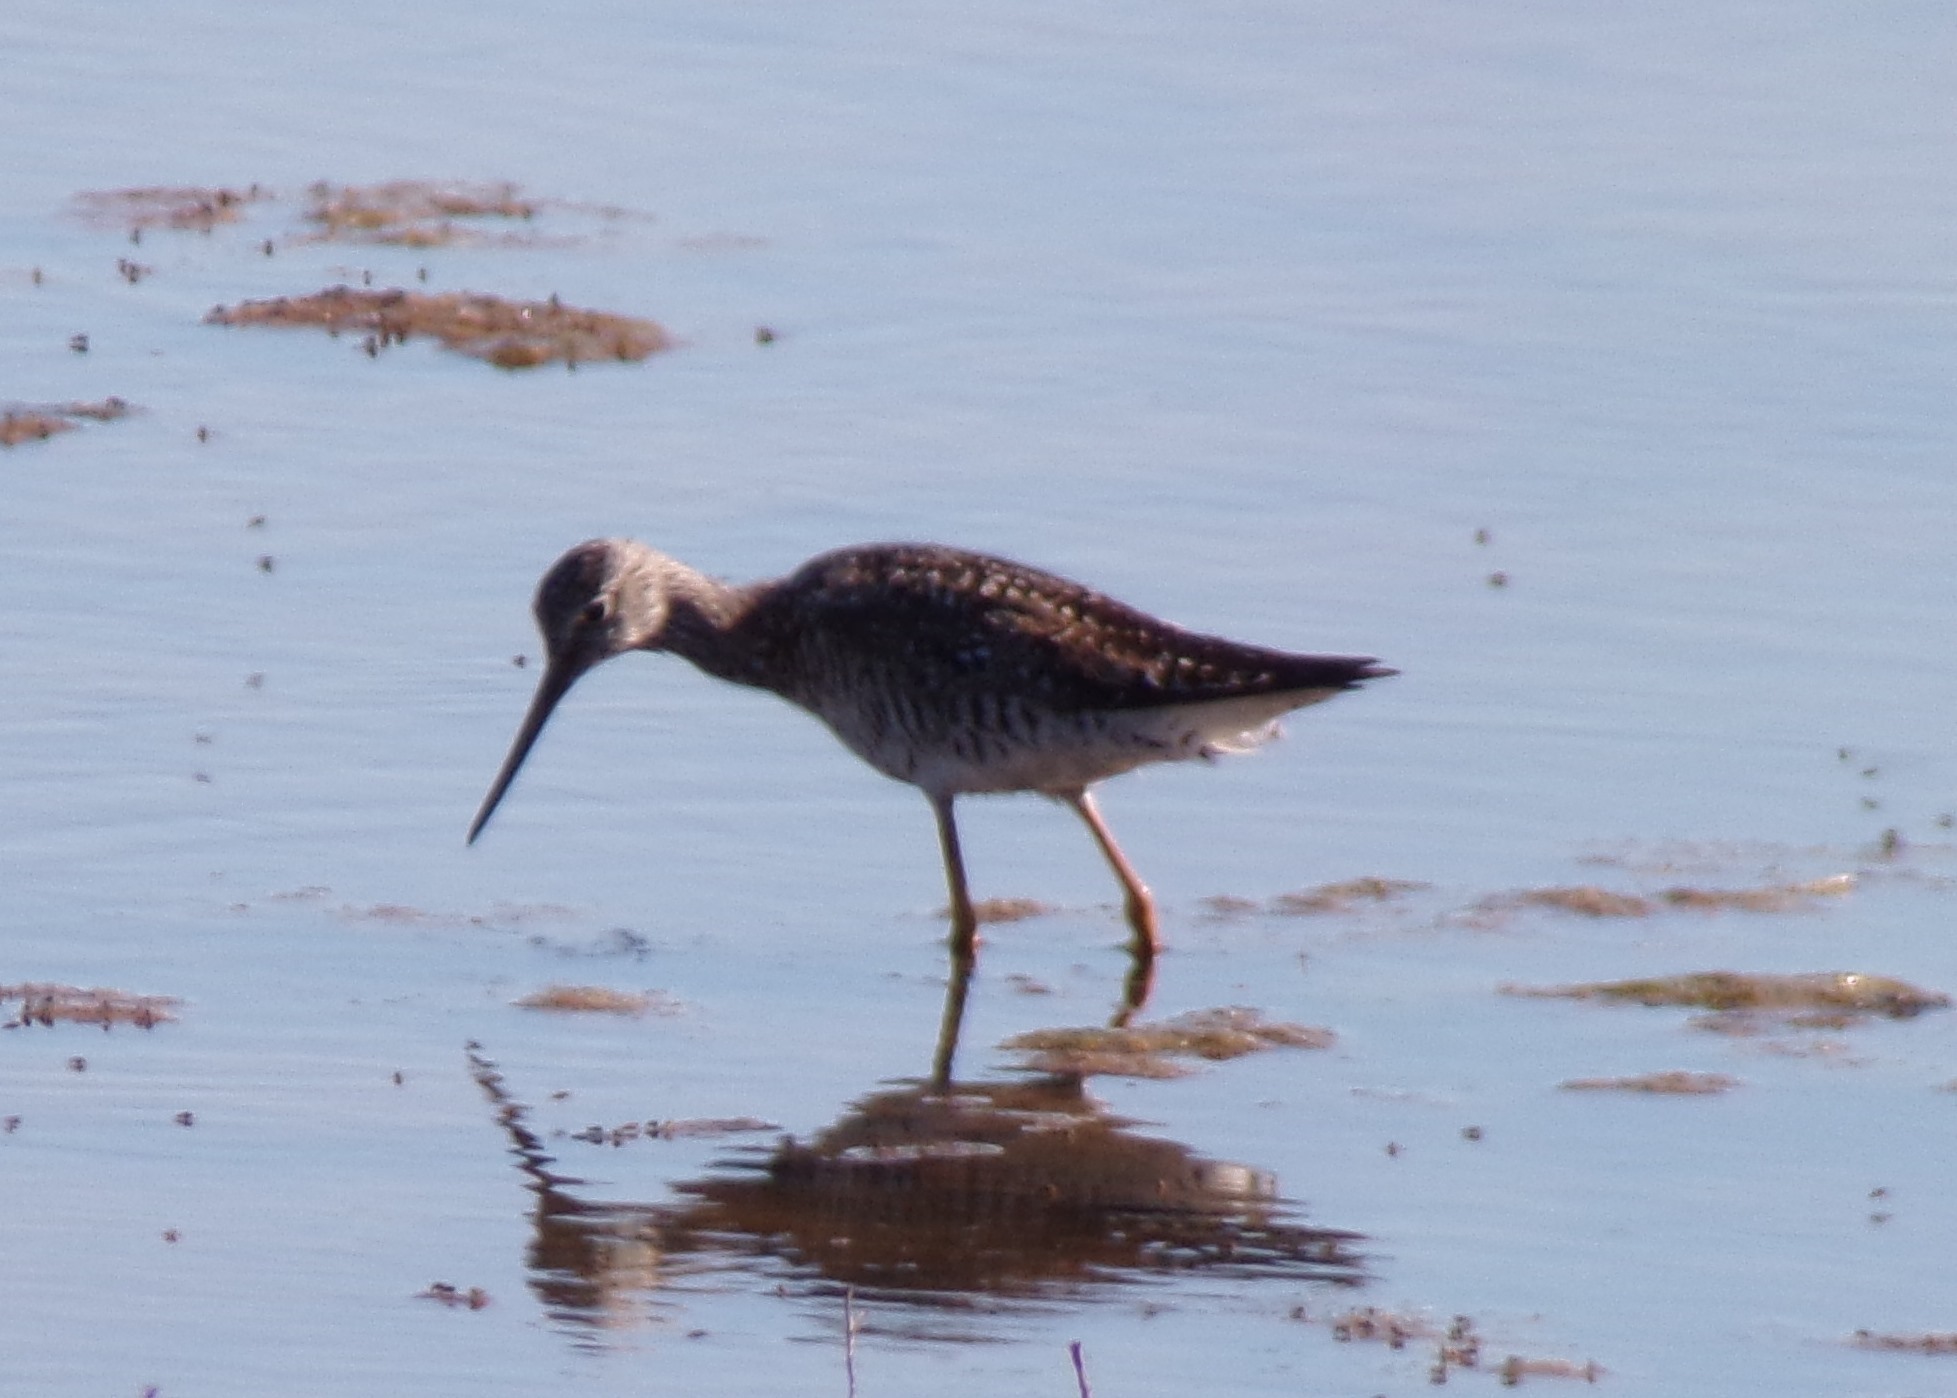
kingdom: Animalia
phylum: Chordata
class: Aves
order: Charadriiformes
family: Scolopacidae
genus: Tringa
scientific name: Tringa melanoleuca
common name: Greater yellowlegs
